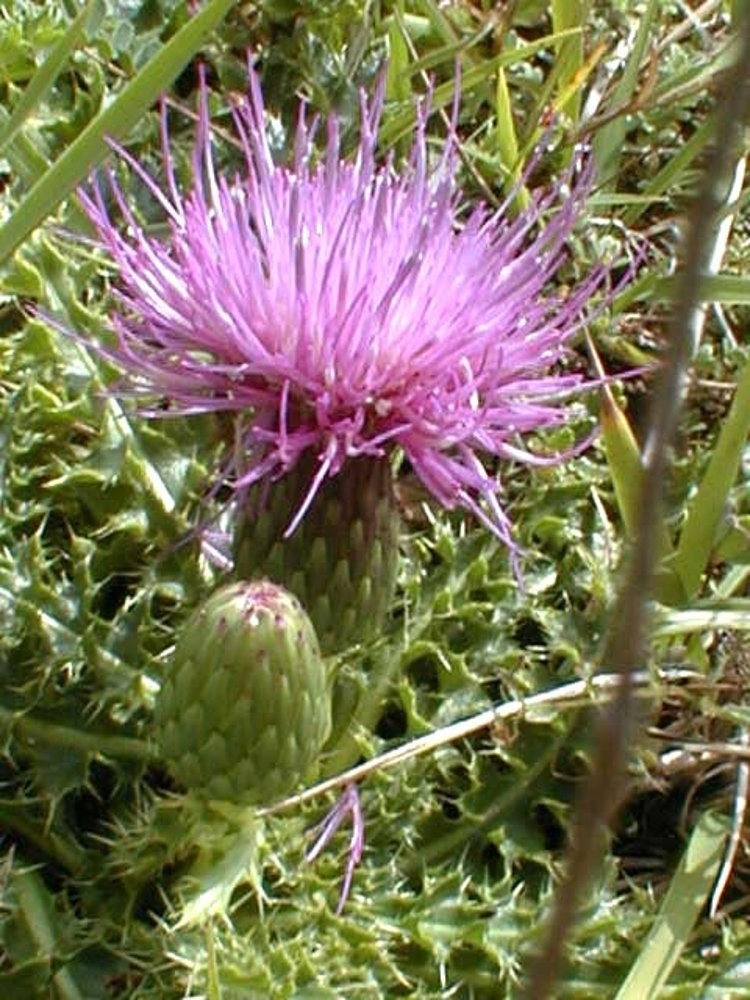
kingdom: Plantae
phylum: Tracheophyta
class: Magnoliopsida
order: Asterales
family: Asteraceae
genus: Cirsium
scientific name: Cirsium acaulon
